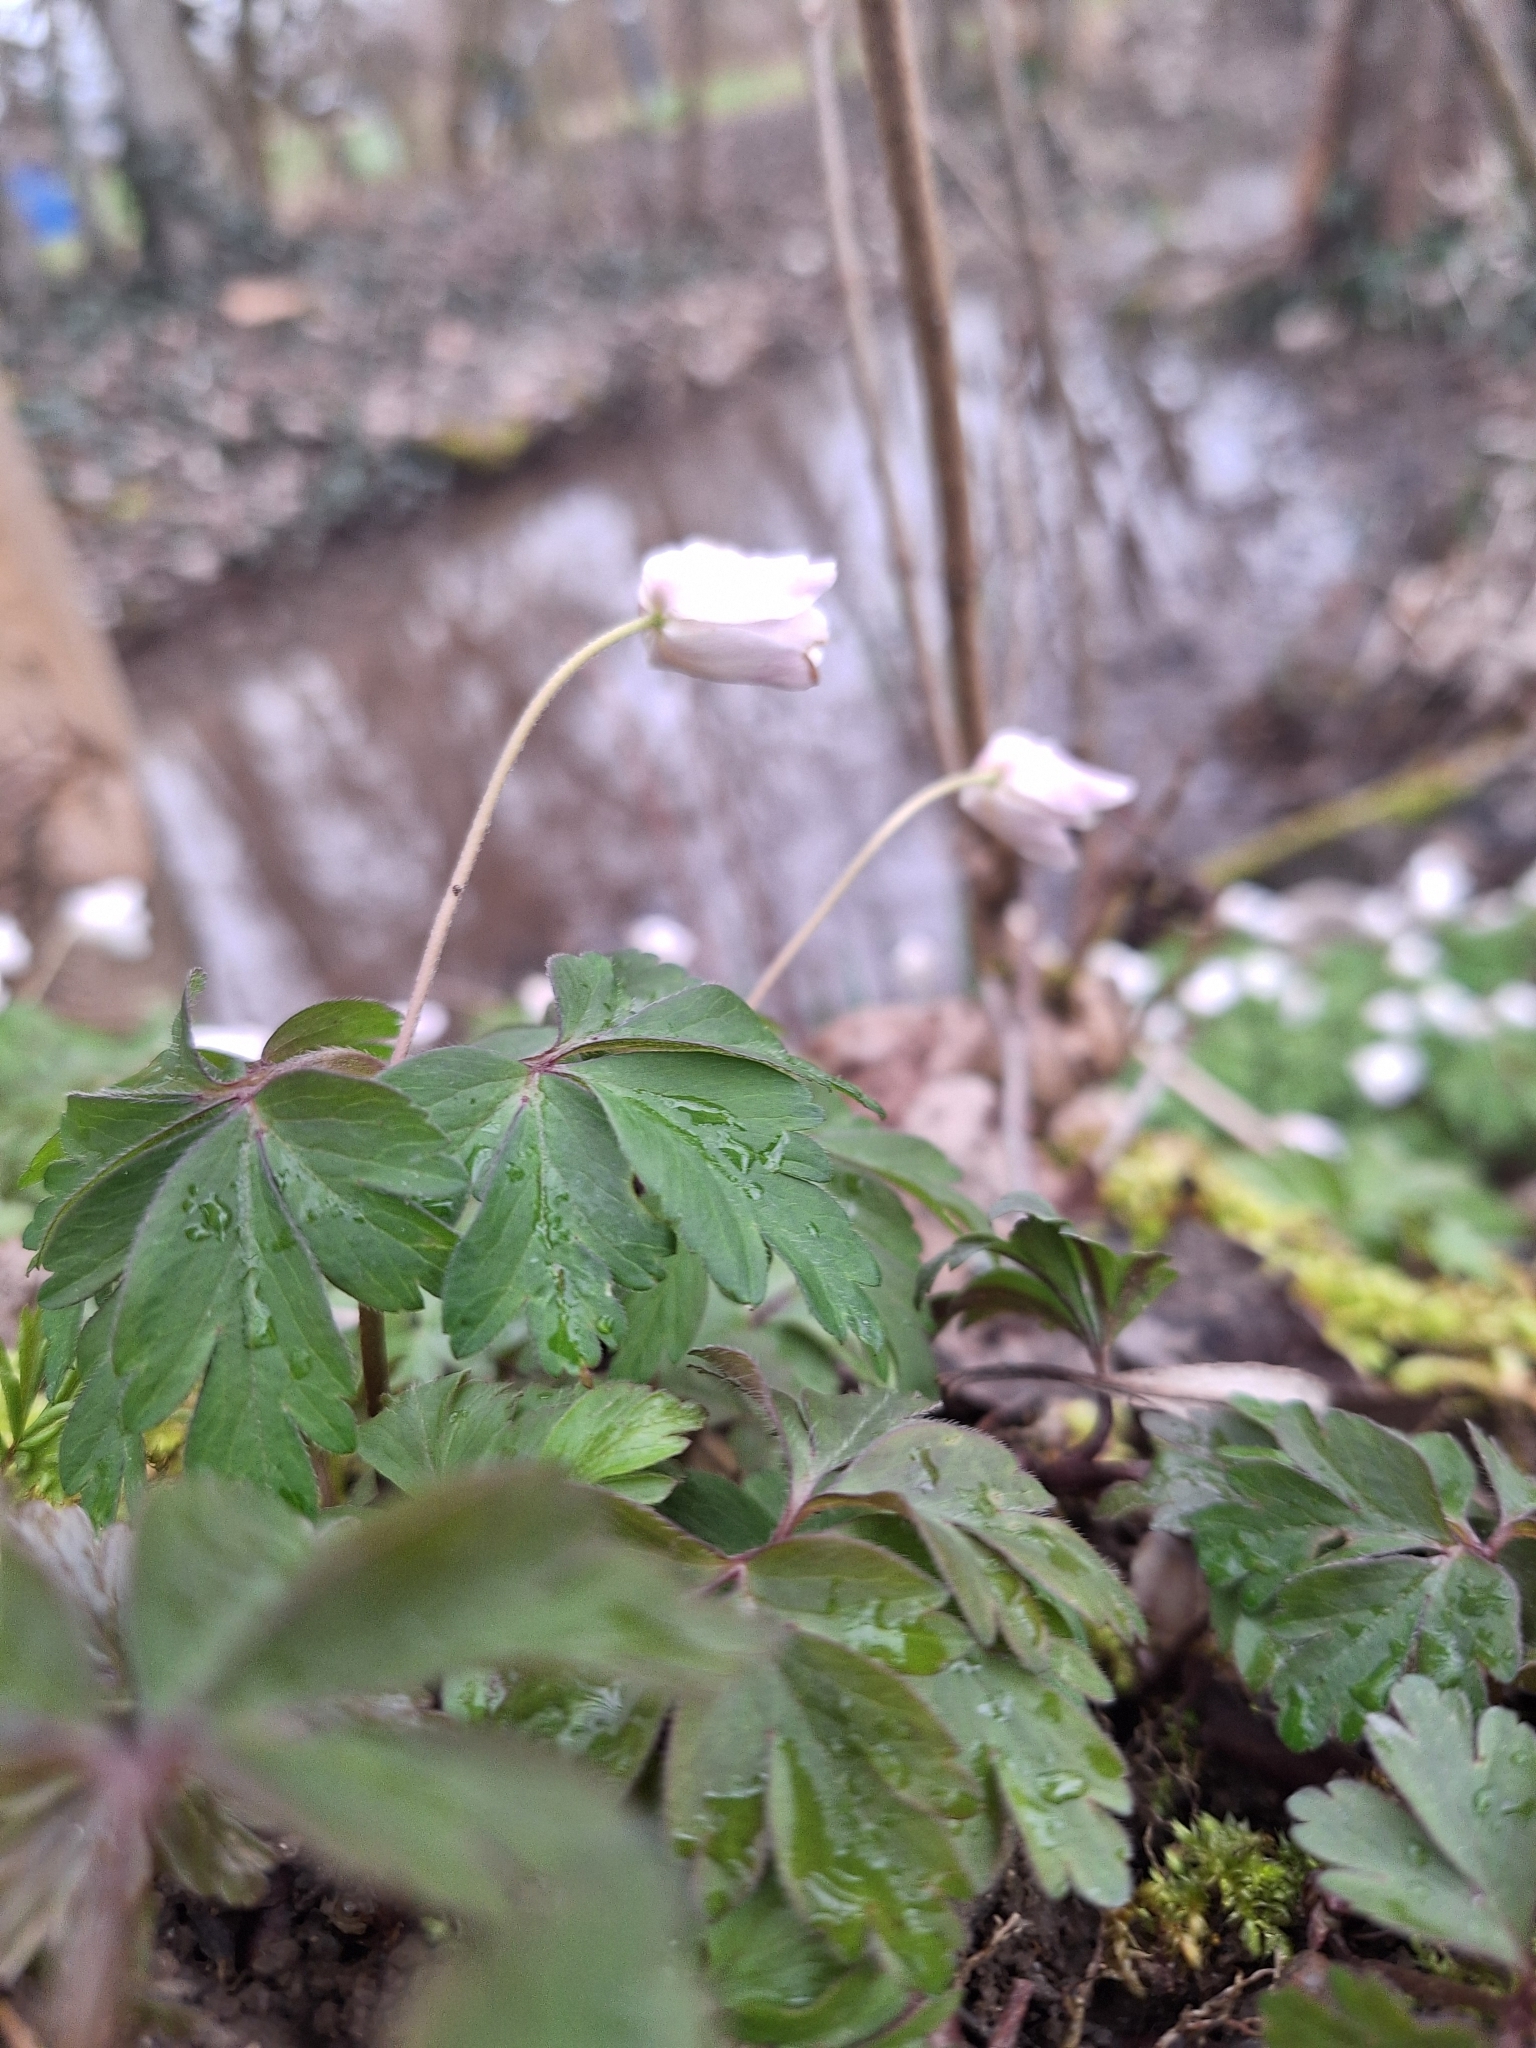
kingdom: Plantae
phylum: Tracheophyta
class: Magnoliopsida
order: Ranunculales
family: Ranunculaceae
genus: Anemone
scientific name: Anemone nemorosa
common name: Wood anemone
